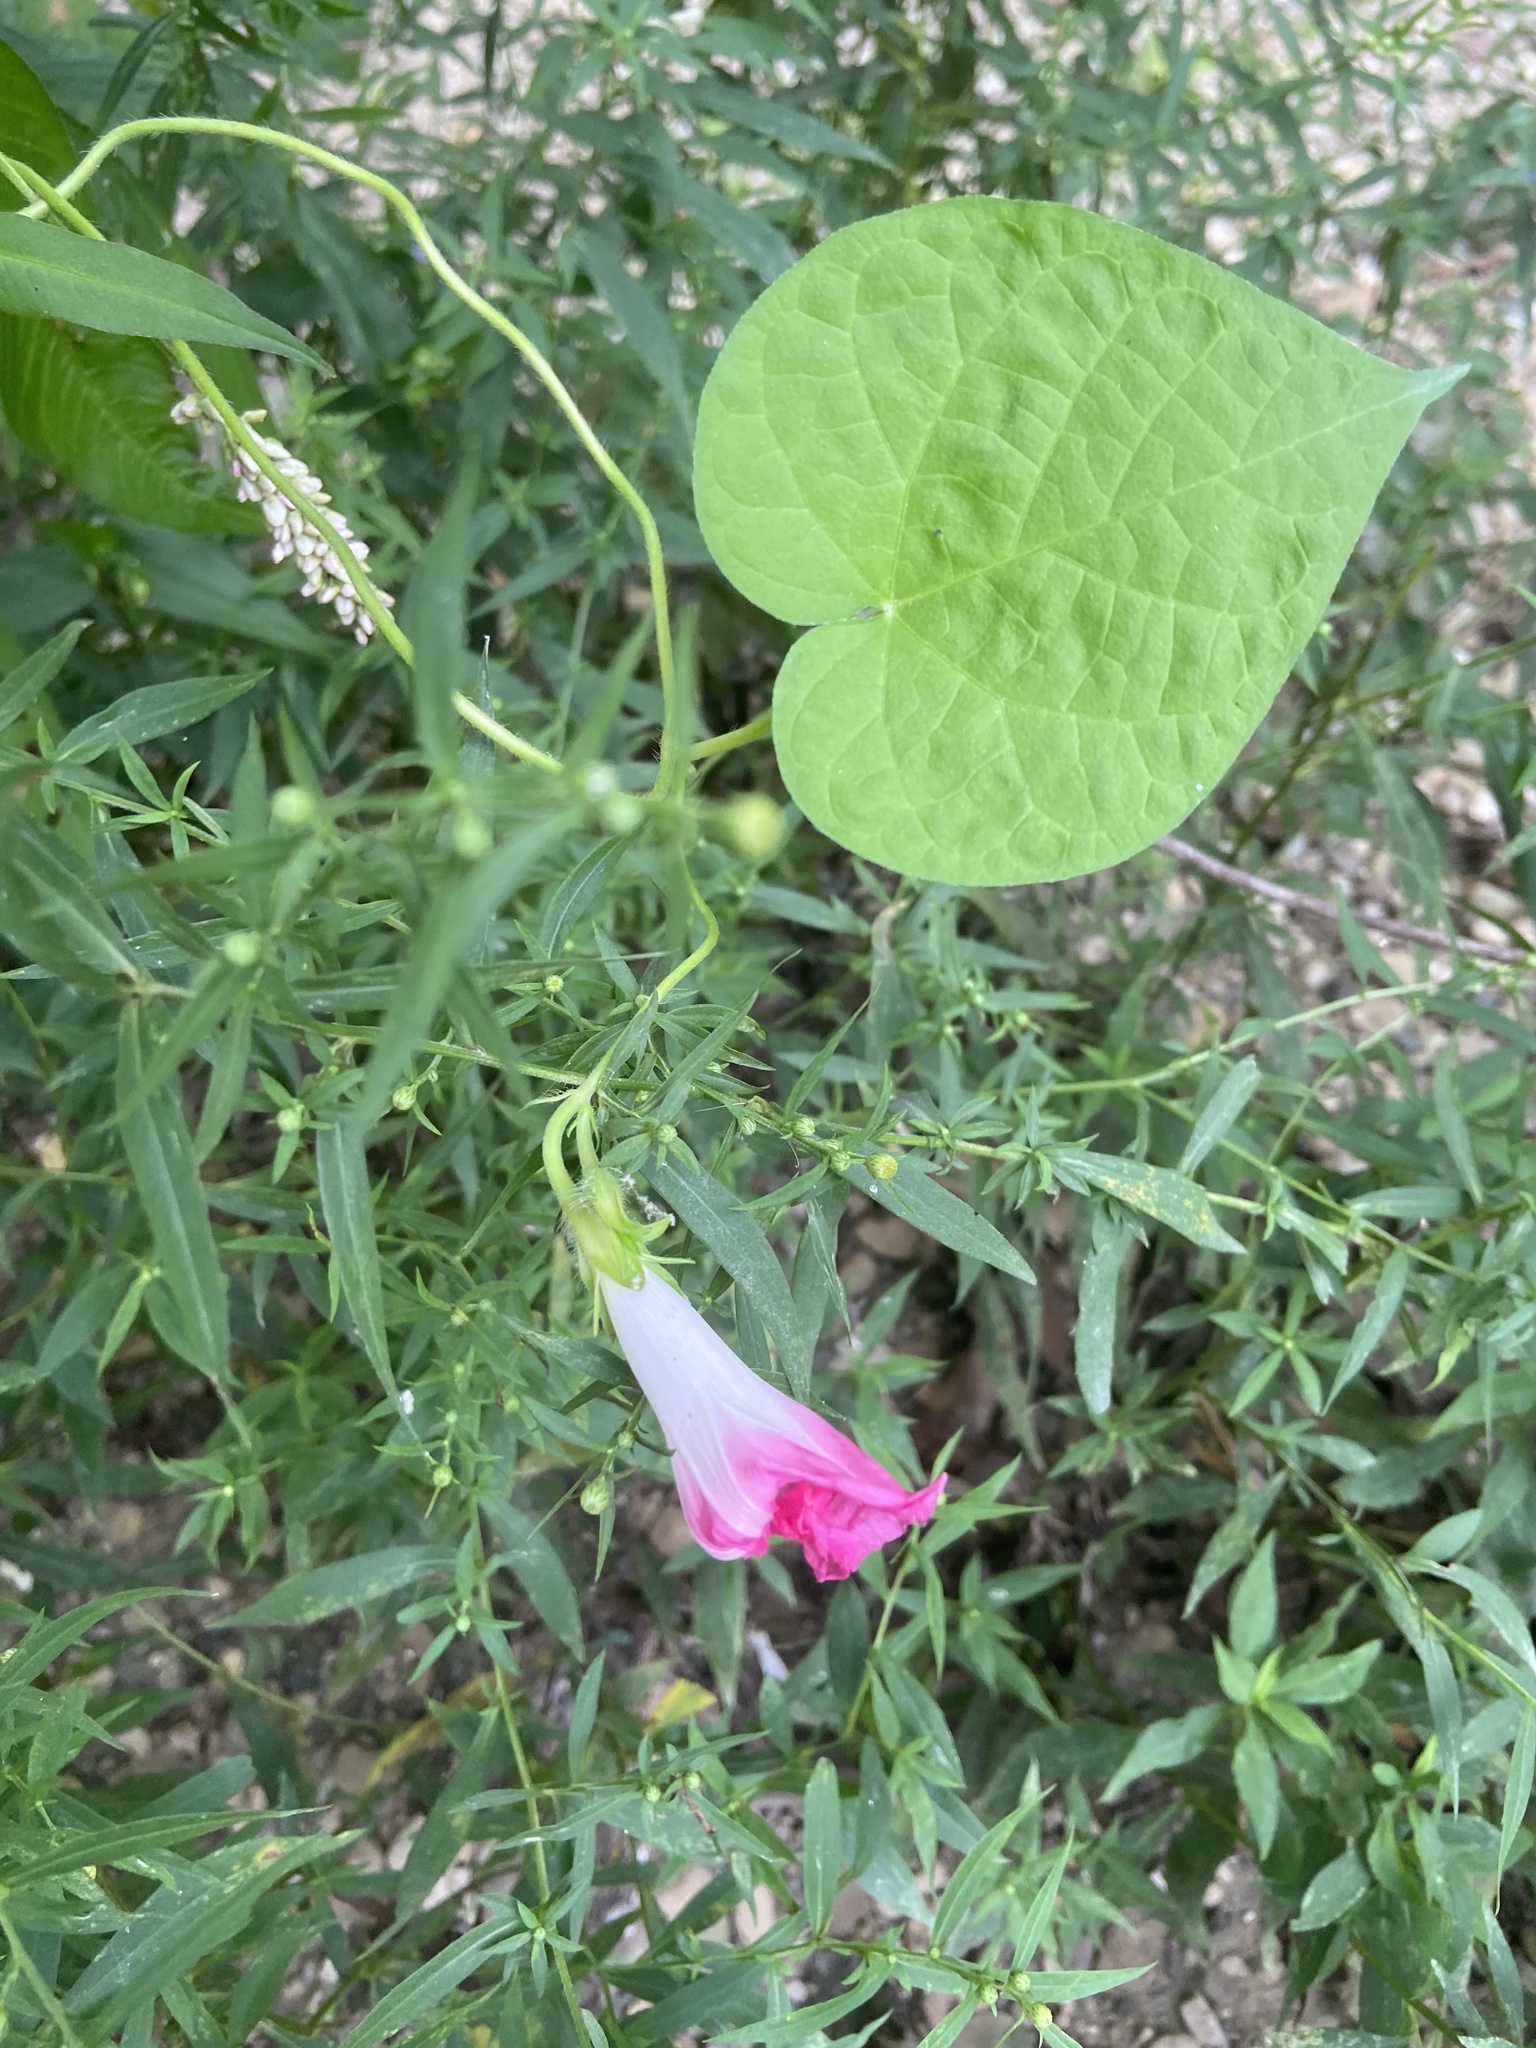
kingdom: Plantae
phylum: Tracheophyta
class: Magnoliopsida
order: Solanales
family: Convolvulaceae
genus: Ipomoea
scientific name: Ipomoea purpurea
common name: Common morning-glory
